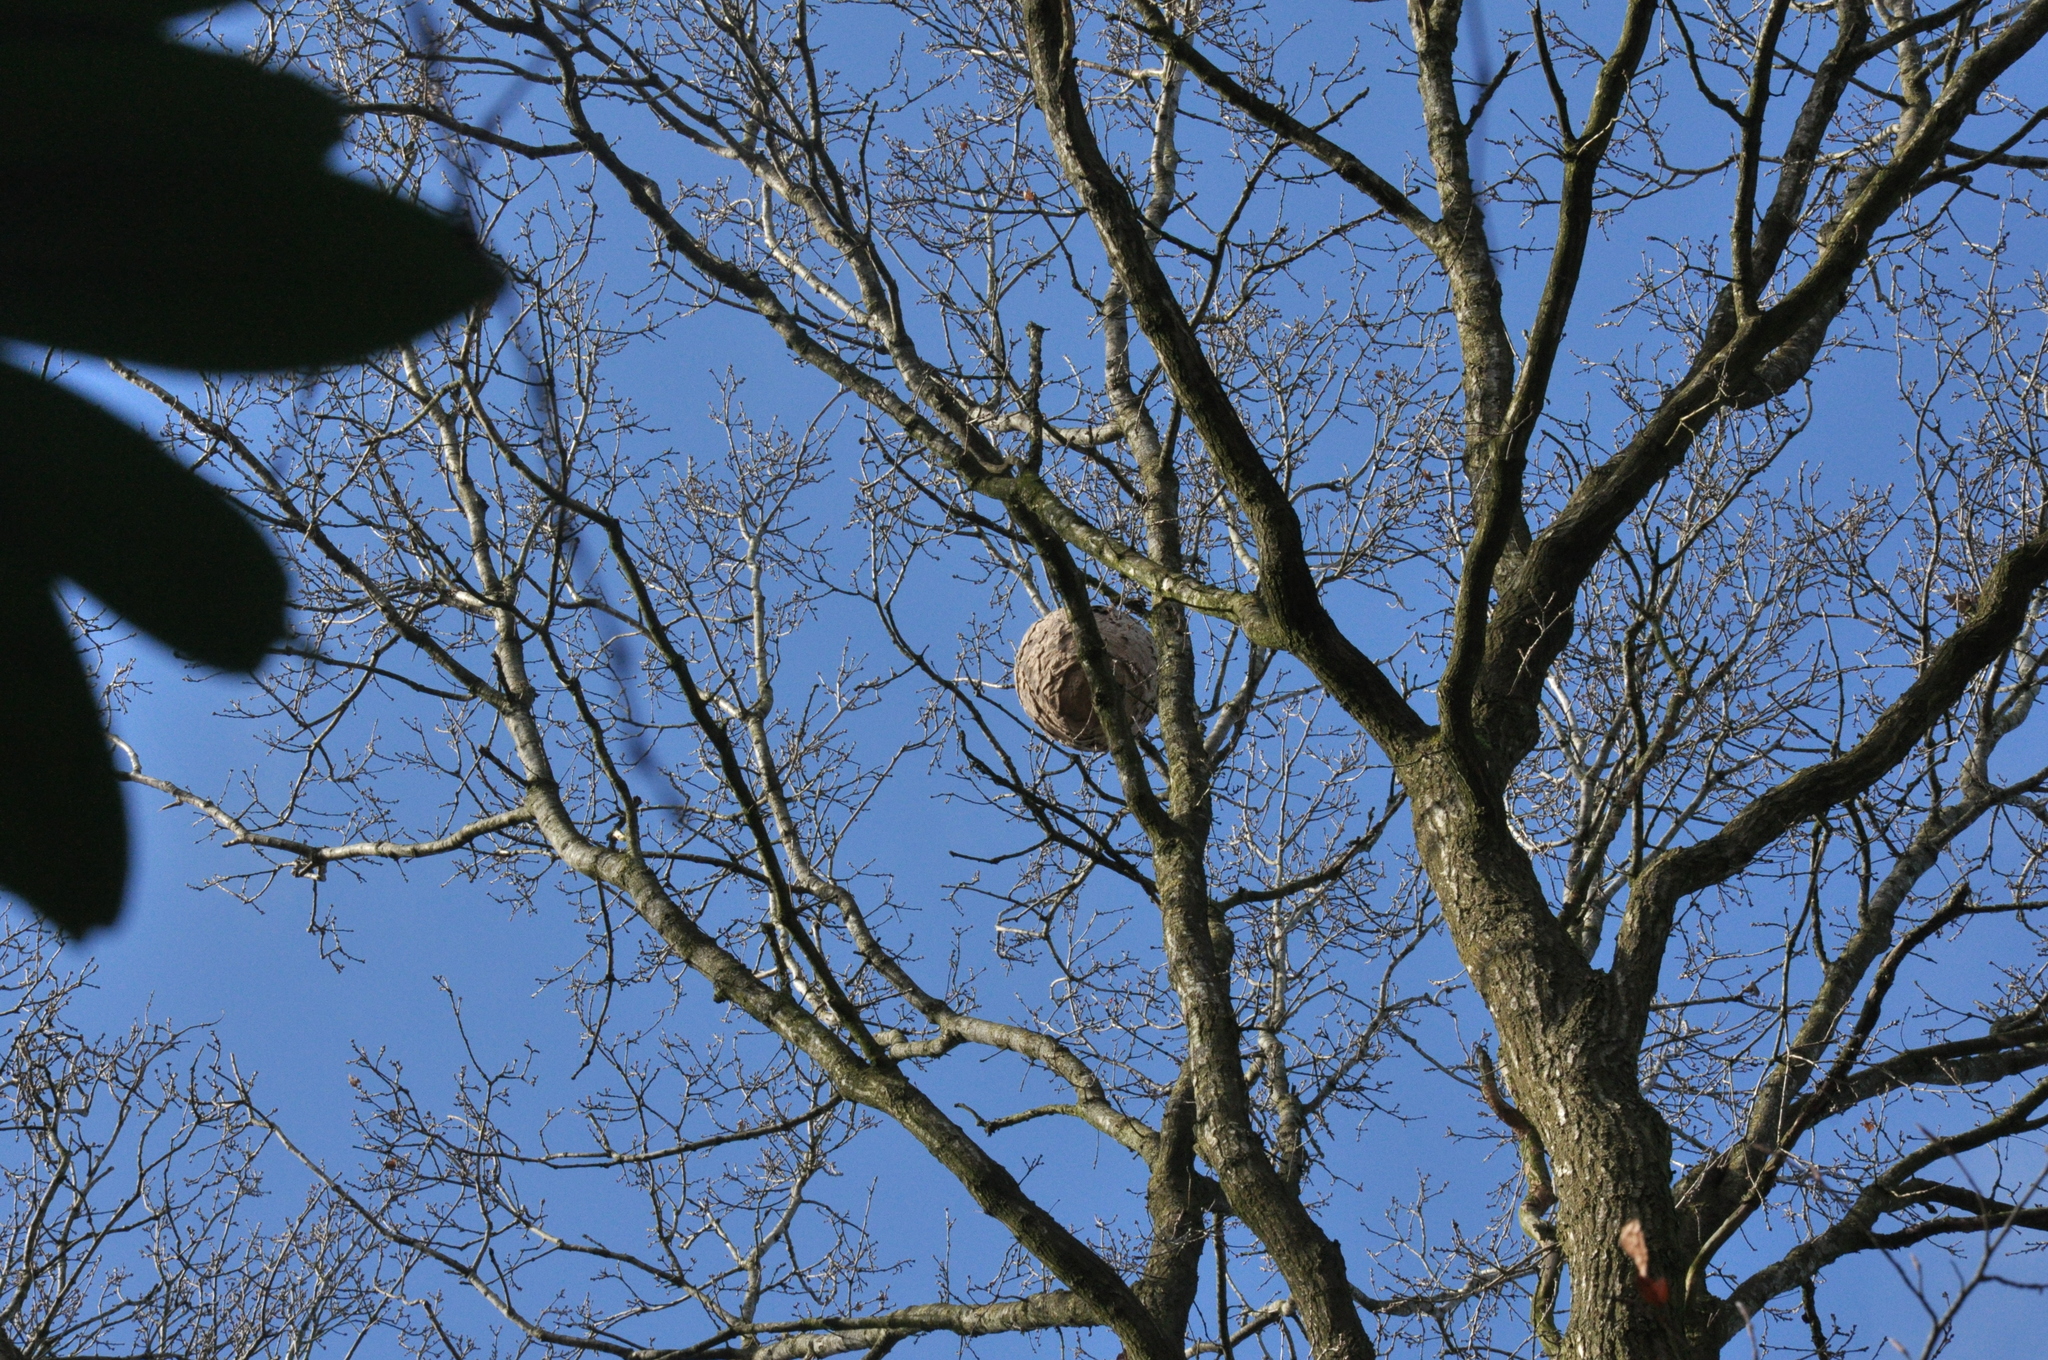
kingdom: Animalia
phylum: Arthropoda
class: Insecta
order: Hymenoptera
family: Vespidae
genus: Vespa
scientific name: Vespa velutina
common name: Asian hornet
